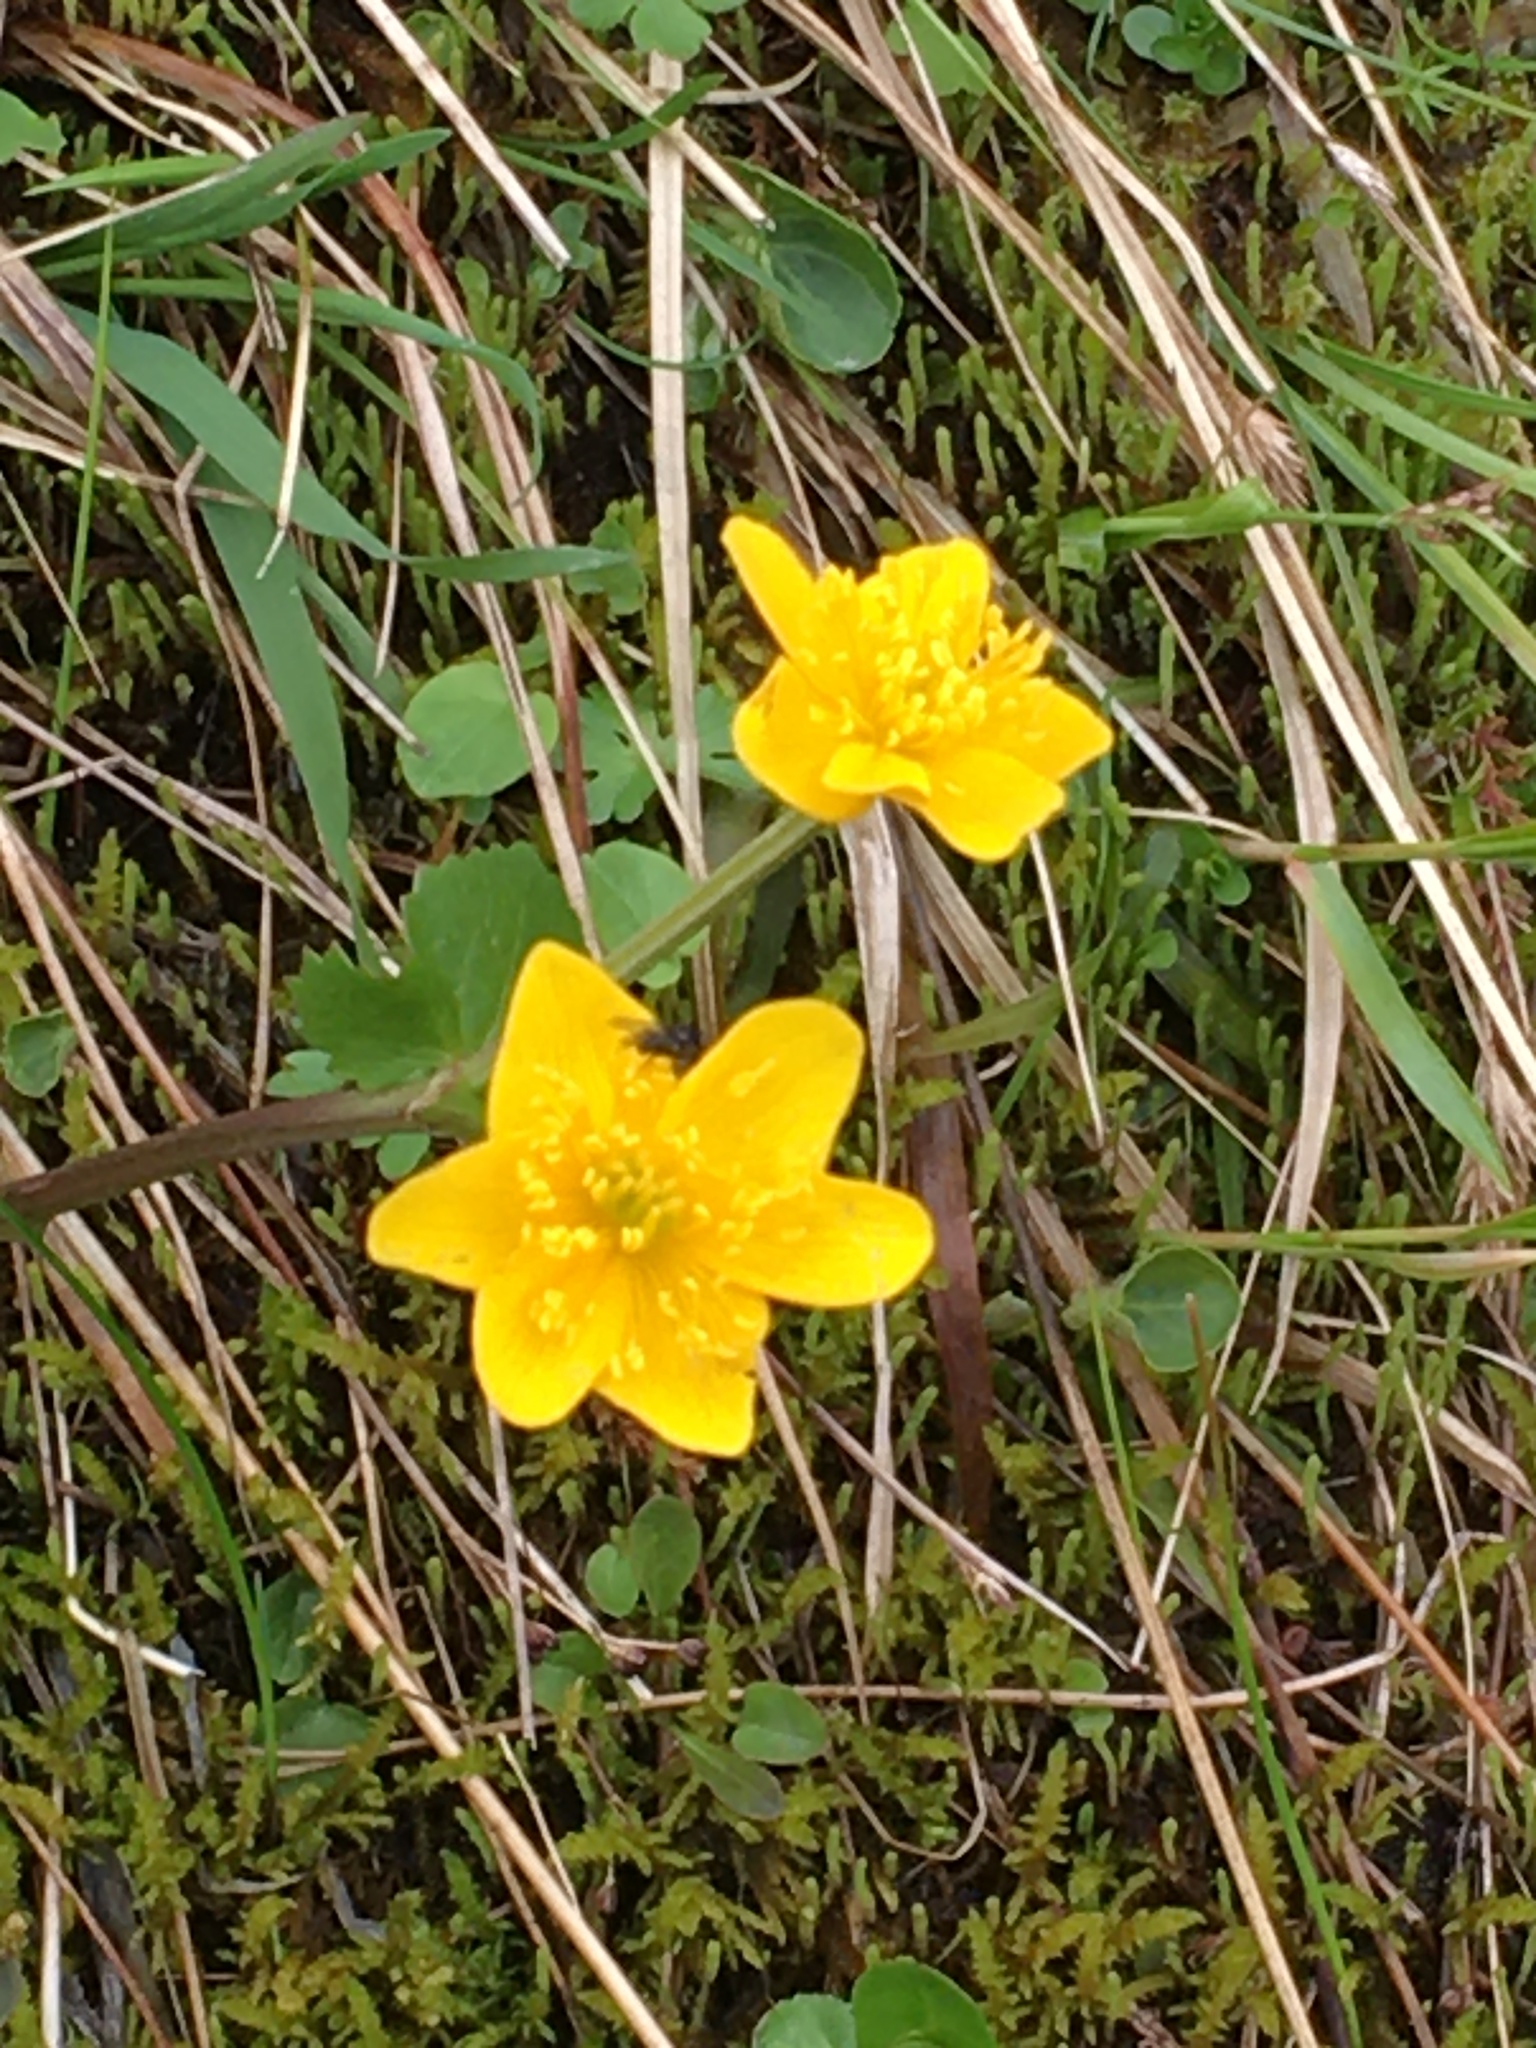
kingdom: Plantae
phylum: Tracheophyta
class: Magnoliopsida
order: Ranunculales
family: Ranunculaceae
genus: Caltha
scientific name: Caltha palustris
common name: Marsh marigold
